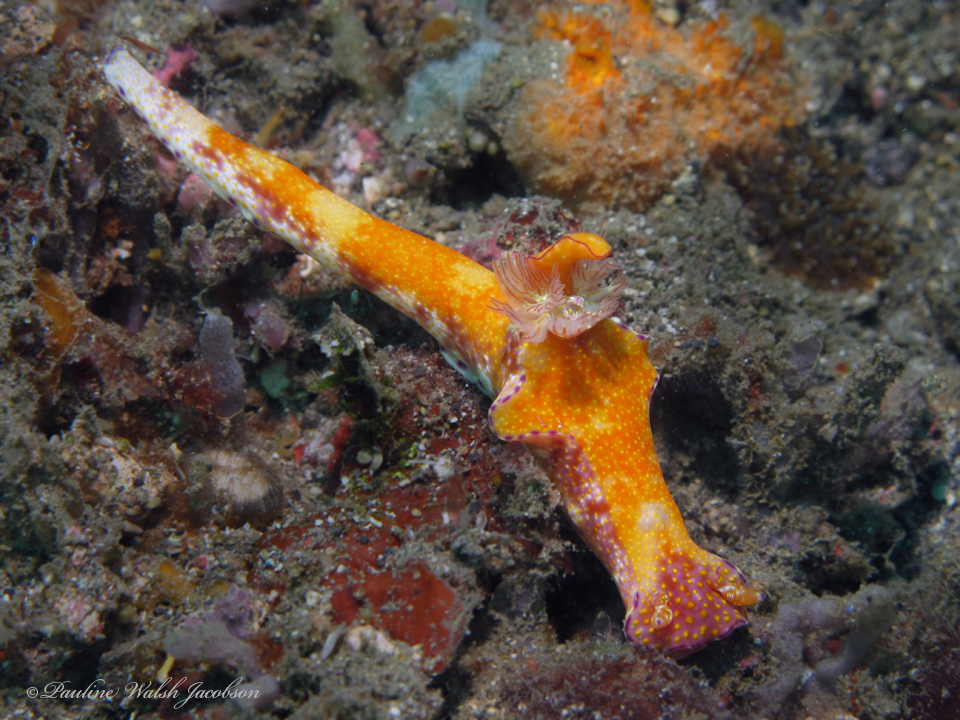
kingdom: Animalia
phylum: Mollusca
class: Gastropoda
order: Nudibranchia
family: Chromodorididae
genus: Ceratosoma
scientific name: Ceratosoma gracillimum
